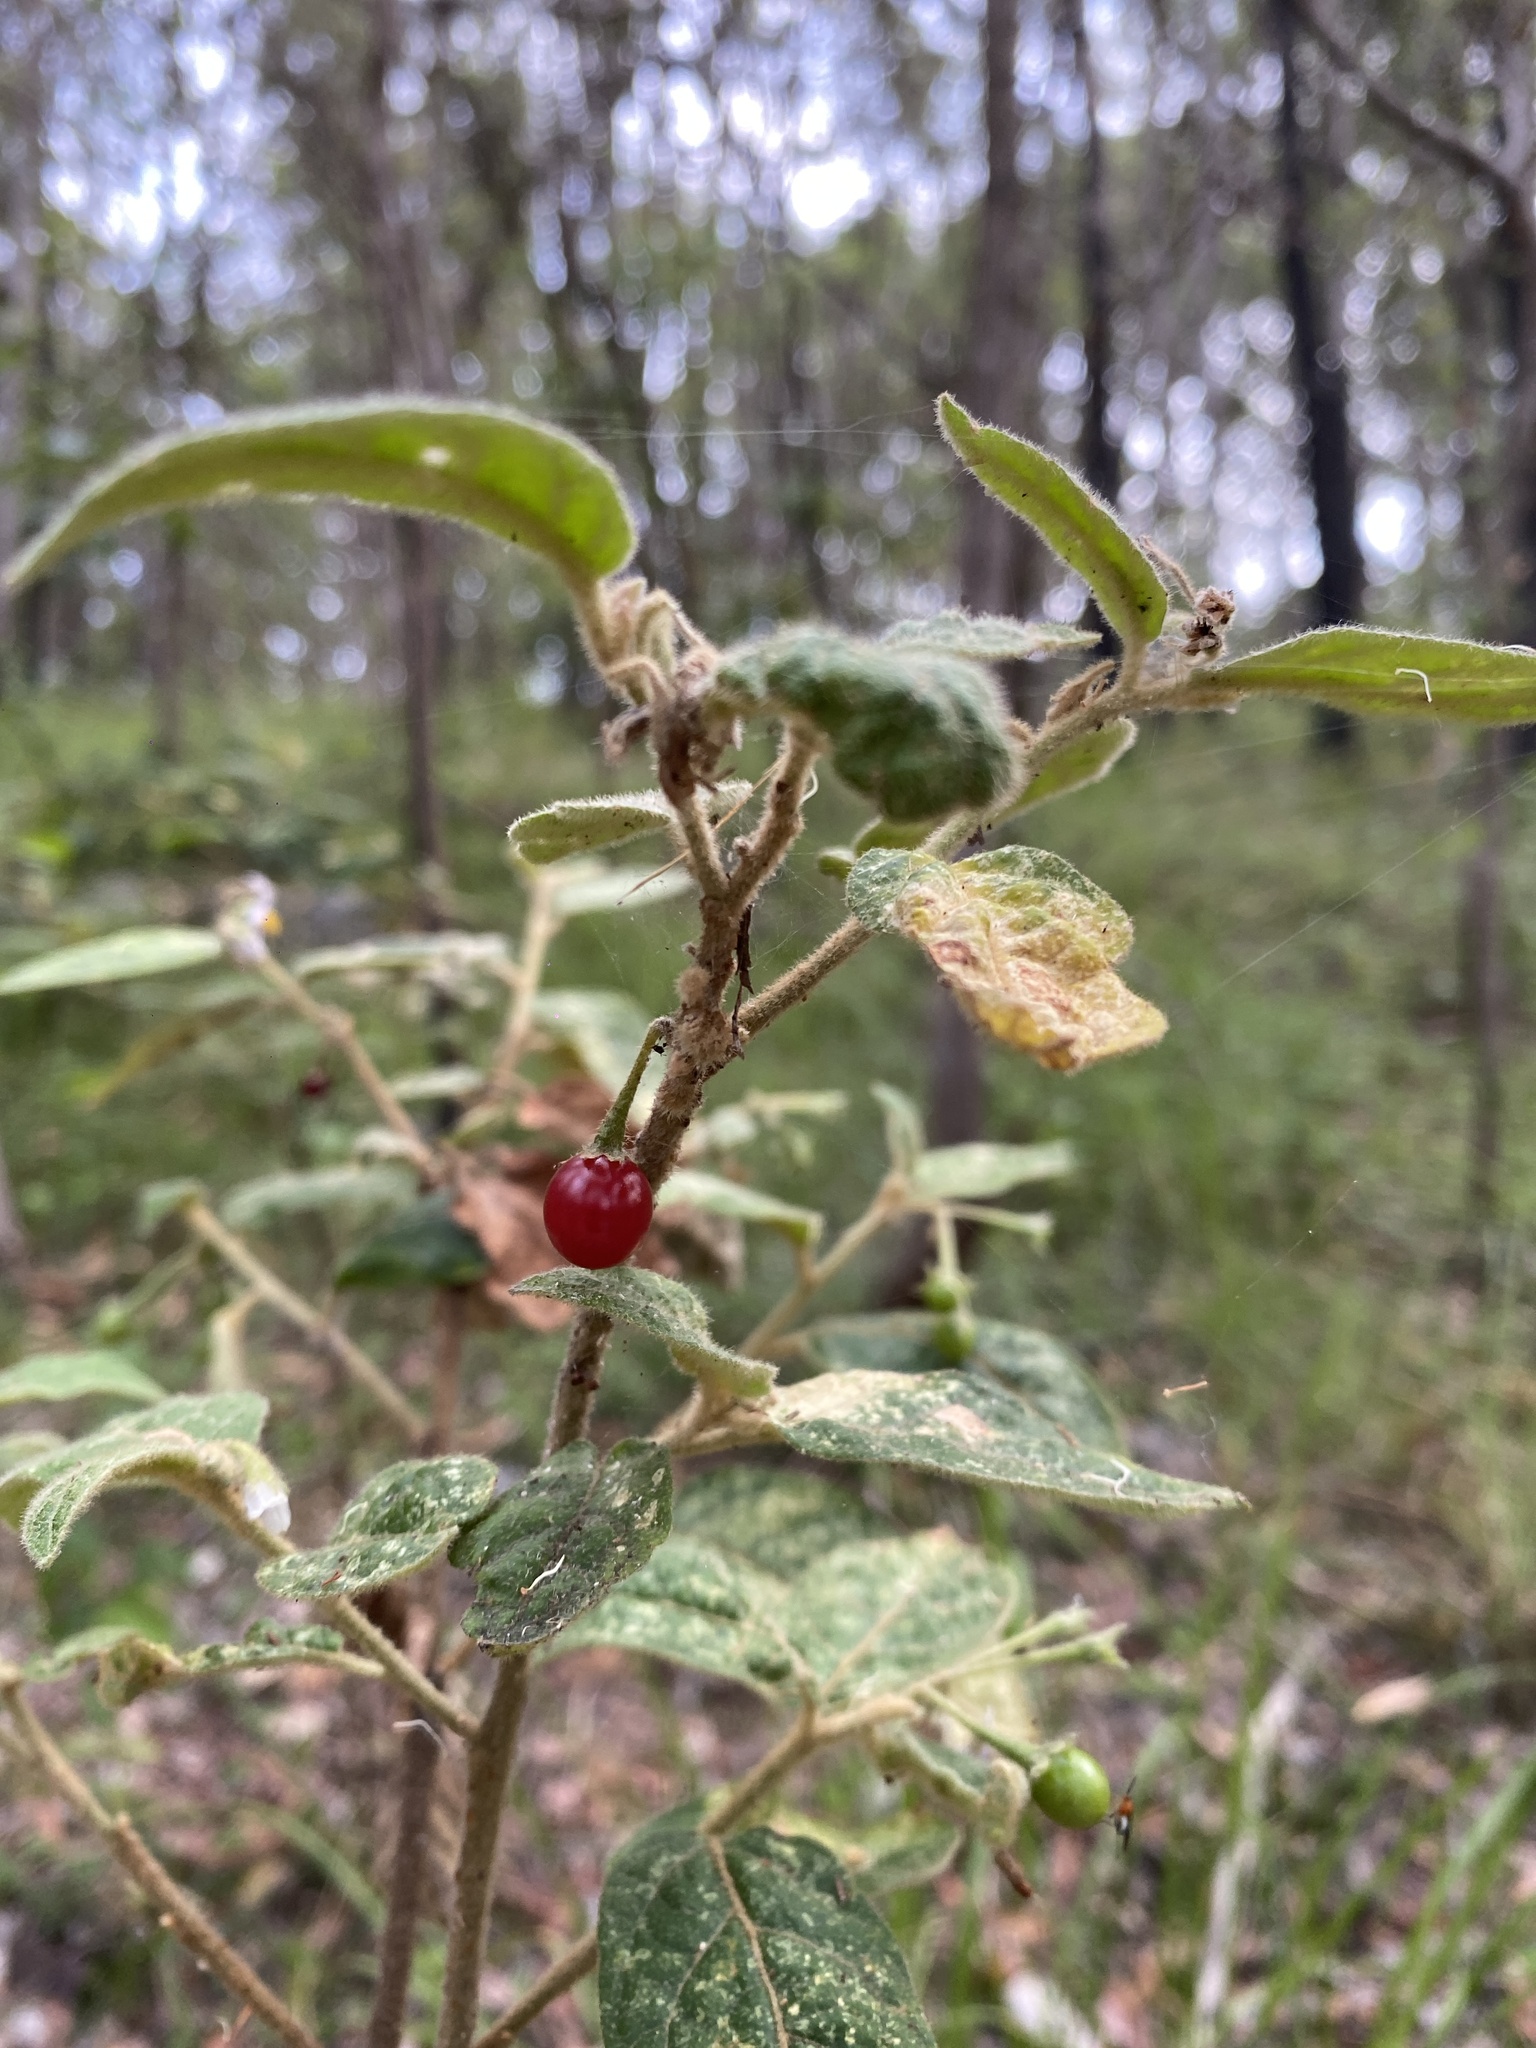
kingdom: Plantae
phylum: Tracheophyta
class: Magnoliopsida
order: Solanales
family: Solanaceae
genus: Solanum
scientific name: Solanum stelligerum
